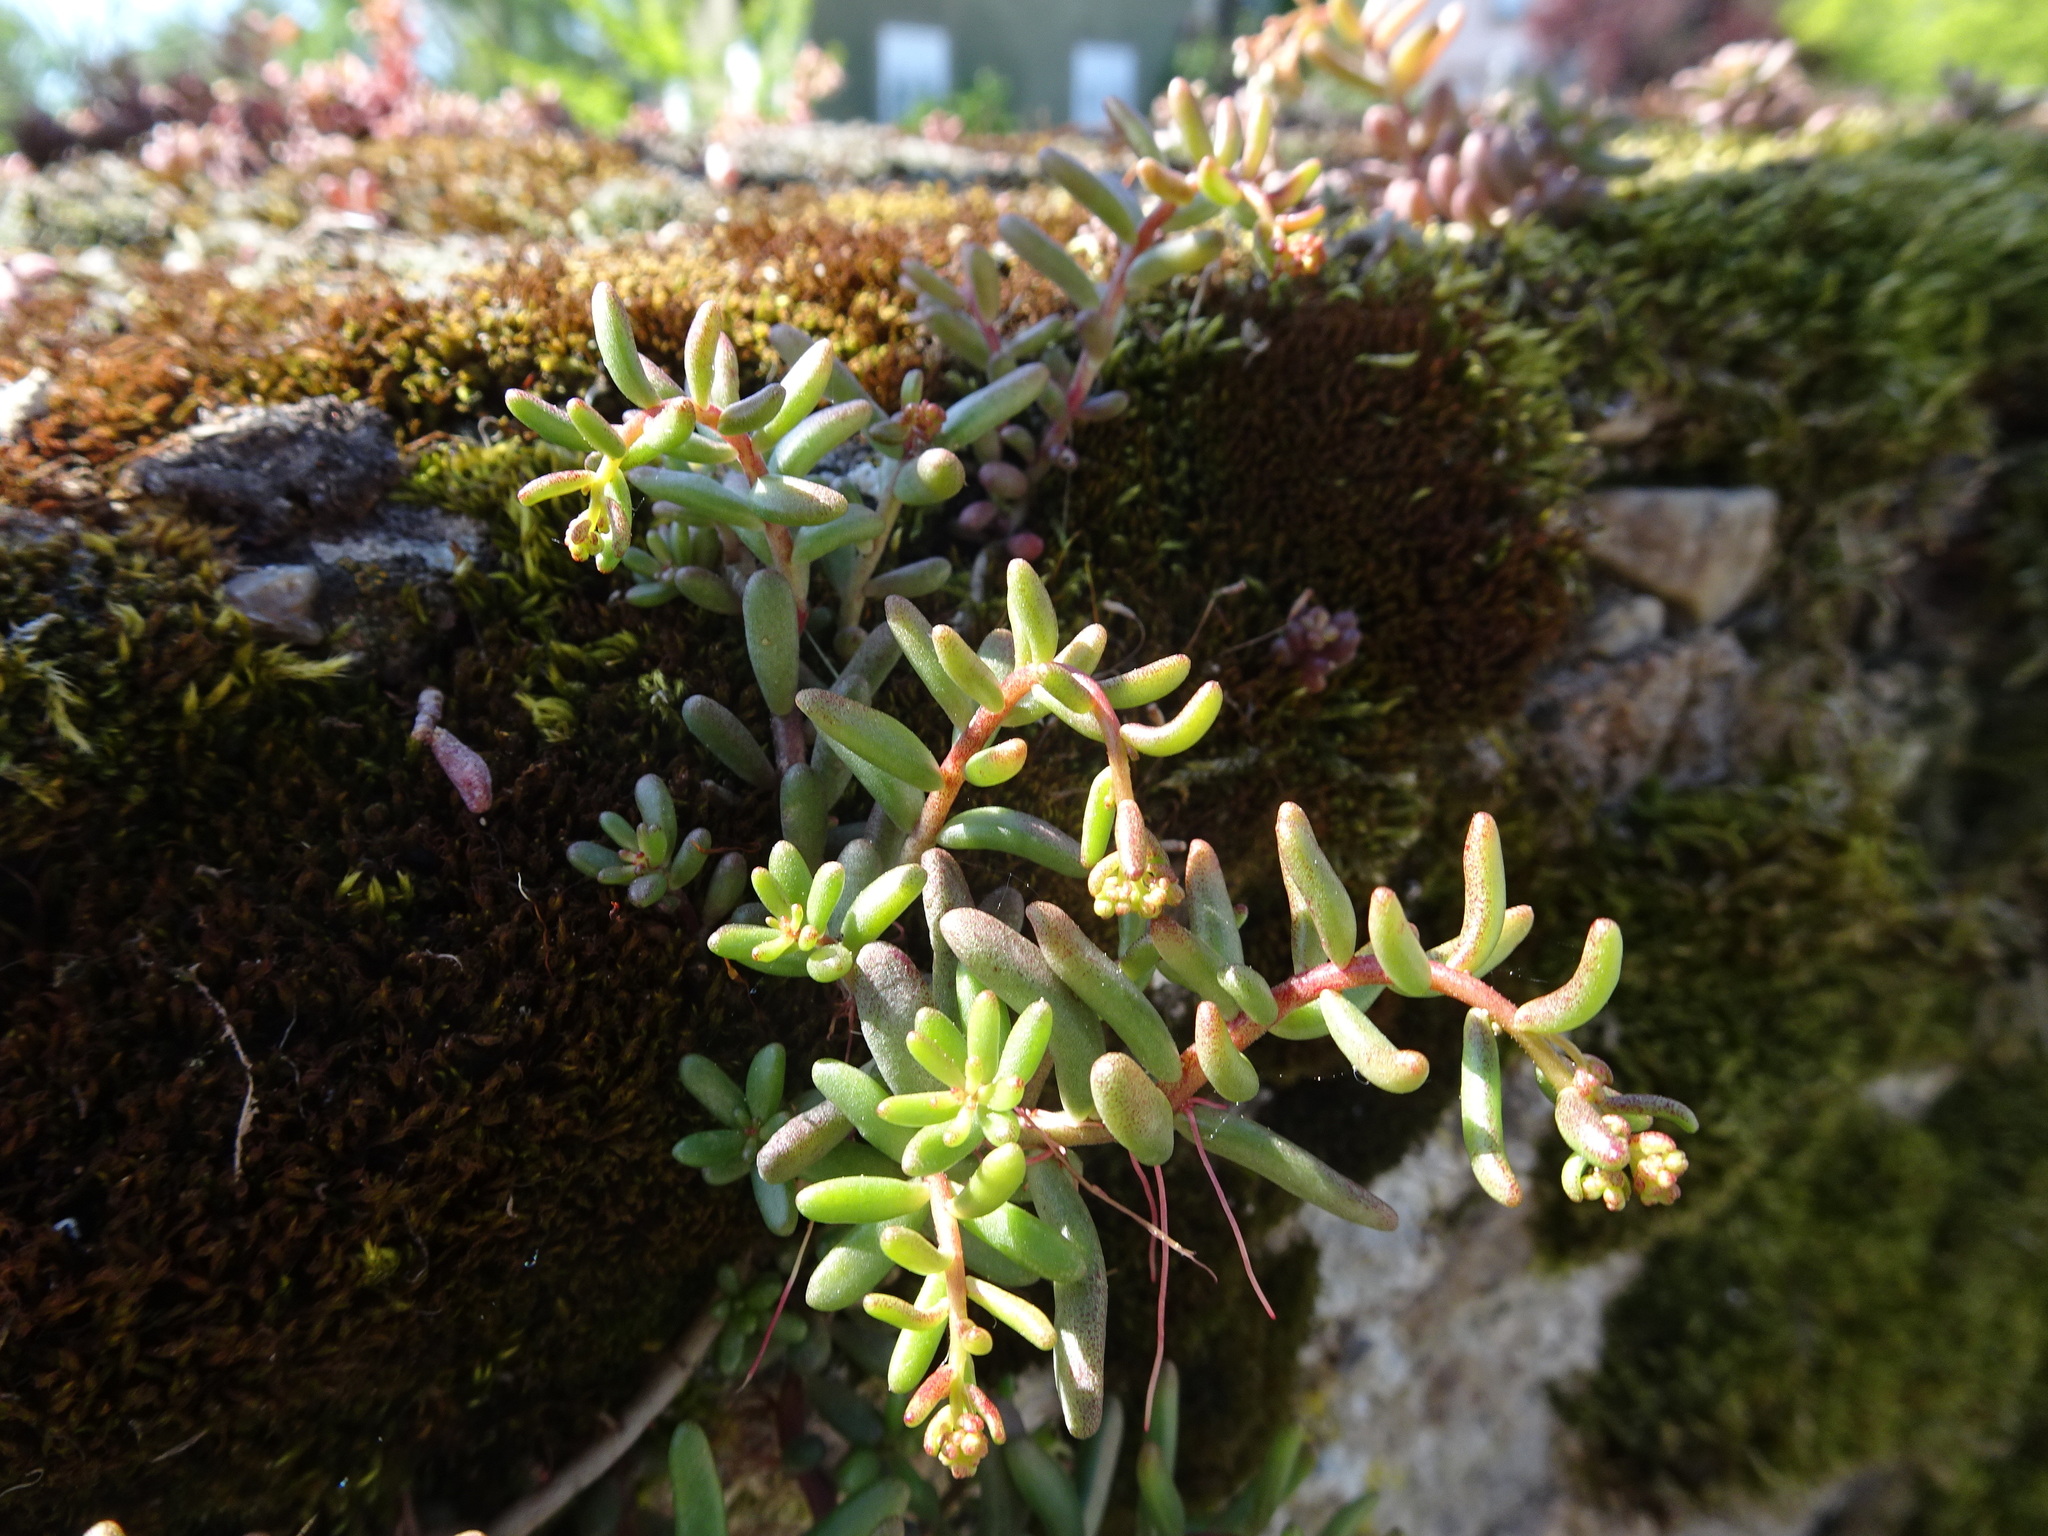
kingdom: Plantae
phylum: Tracheophyta
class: Magnoliopsida
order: Saxifragales
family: Crassulaceae
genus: Sedum
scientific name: Sedum album
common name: White stonecrop
